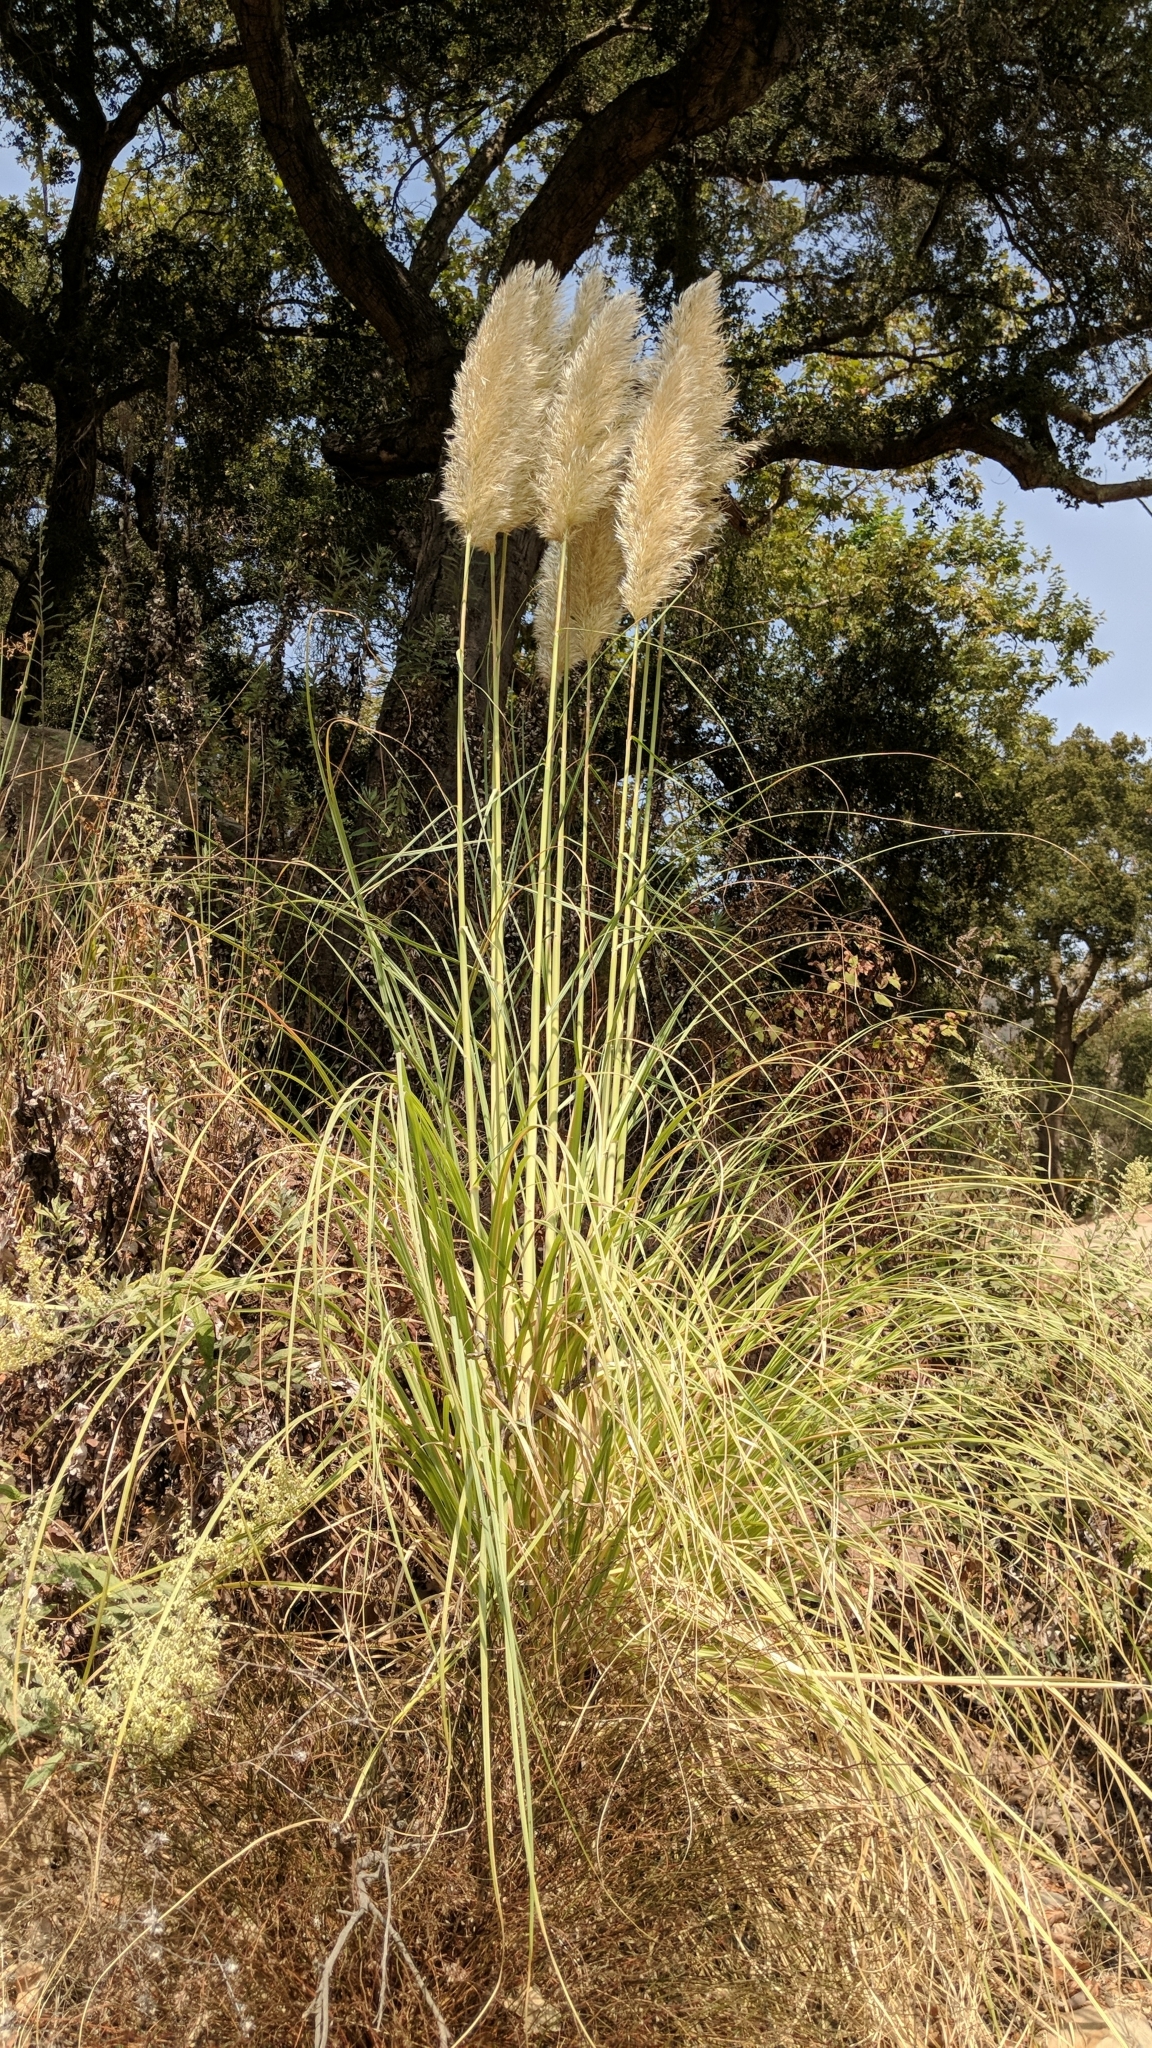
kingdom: Plantae
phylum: Tracheophyta
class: Liliopsida
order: Poales
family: Poaceae
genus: Cortaderia
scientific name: Cortaderia selloana
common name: Uruguayan pampas grass
